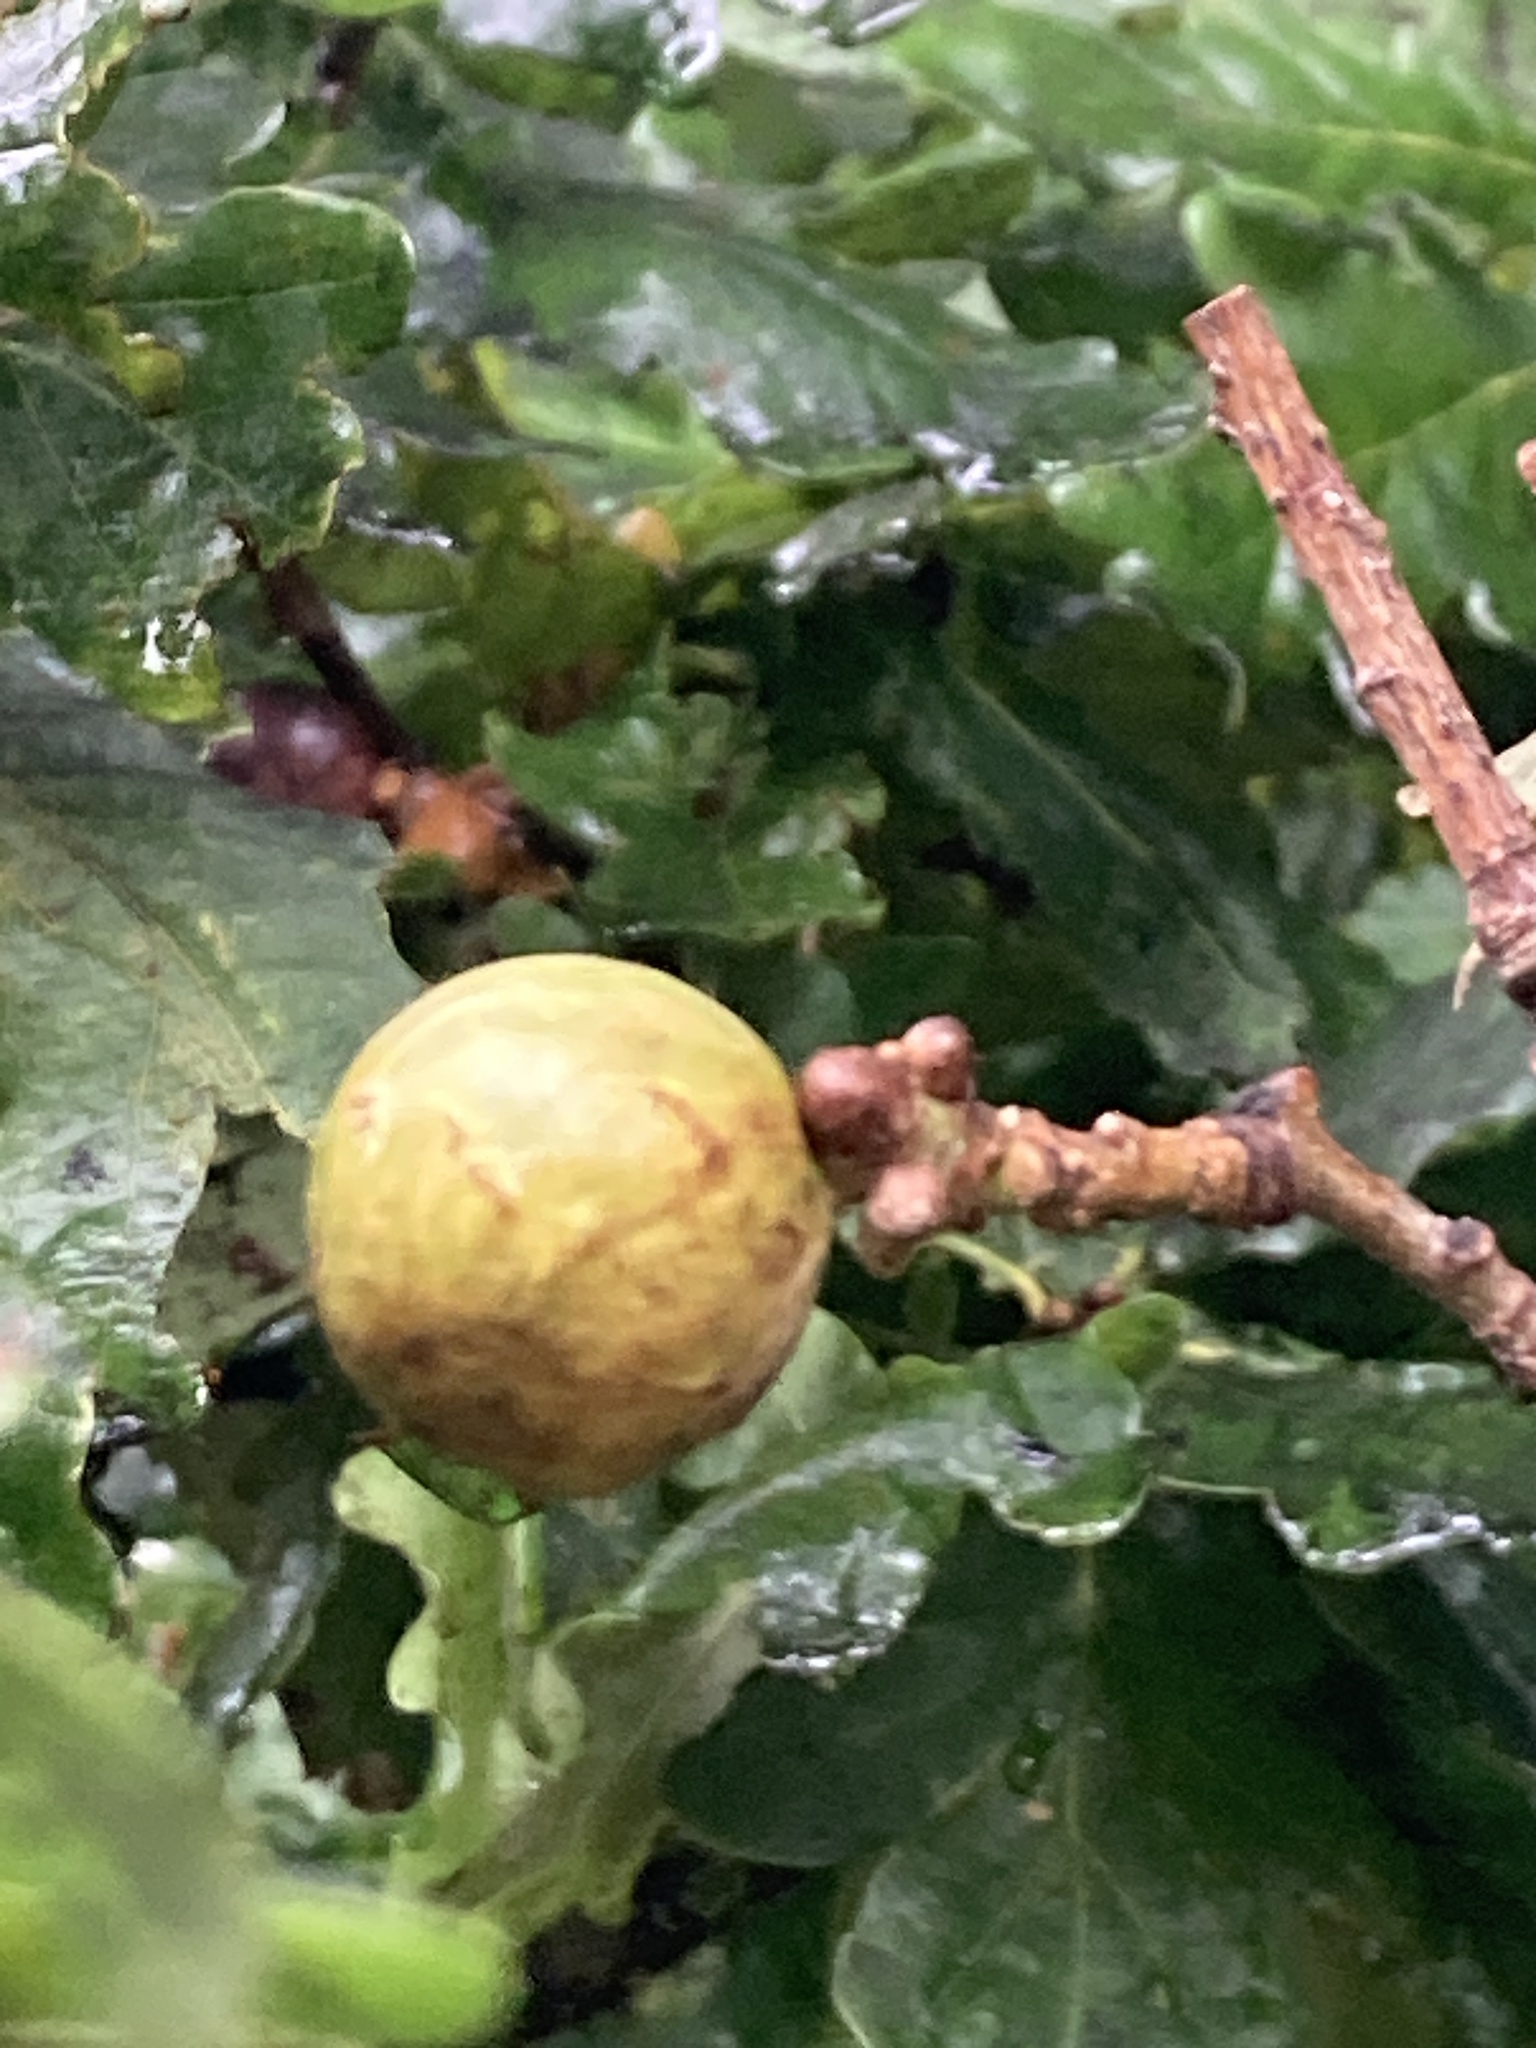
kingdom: Animalia
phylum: Arthropoda
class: Insecta
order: Hymenoptera
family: Cynipidae
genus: Andricus
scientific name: Andricus kollari
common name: Marble gall
